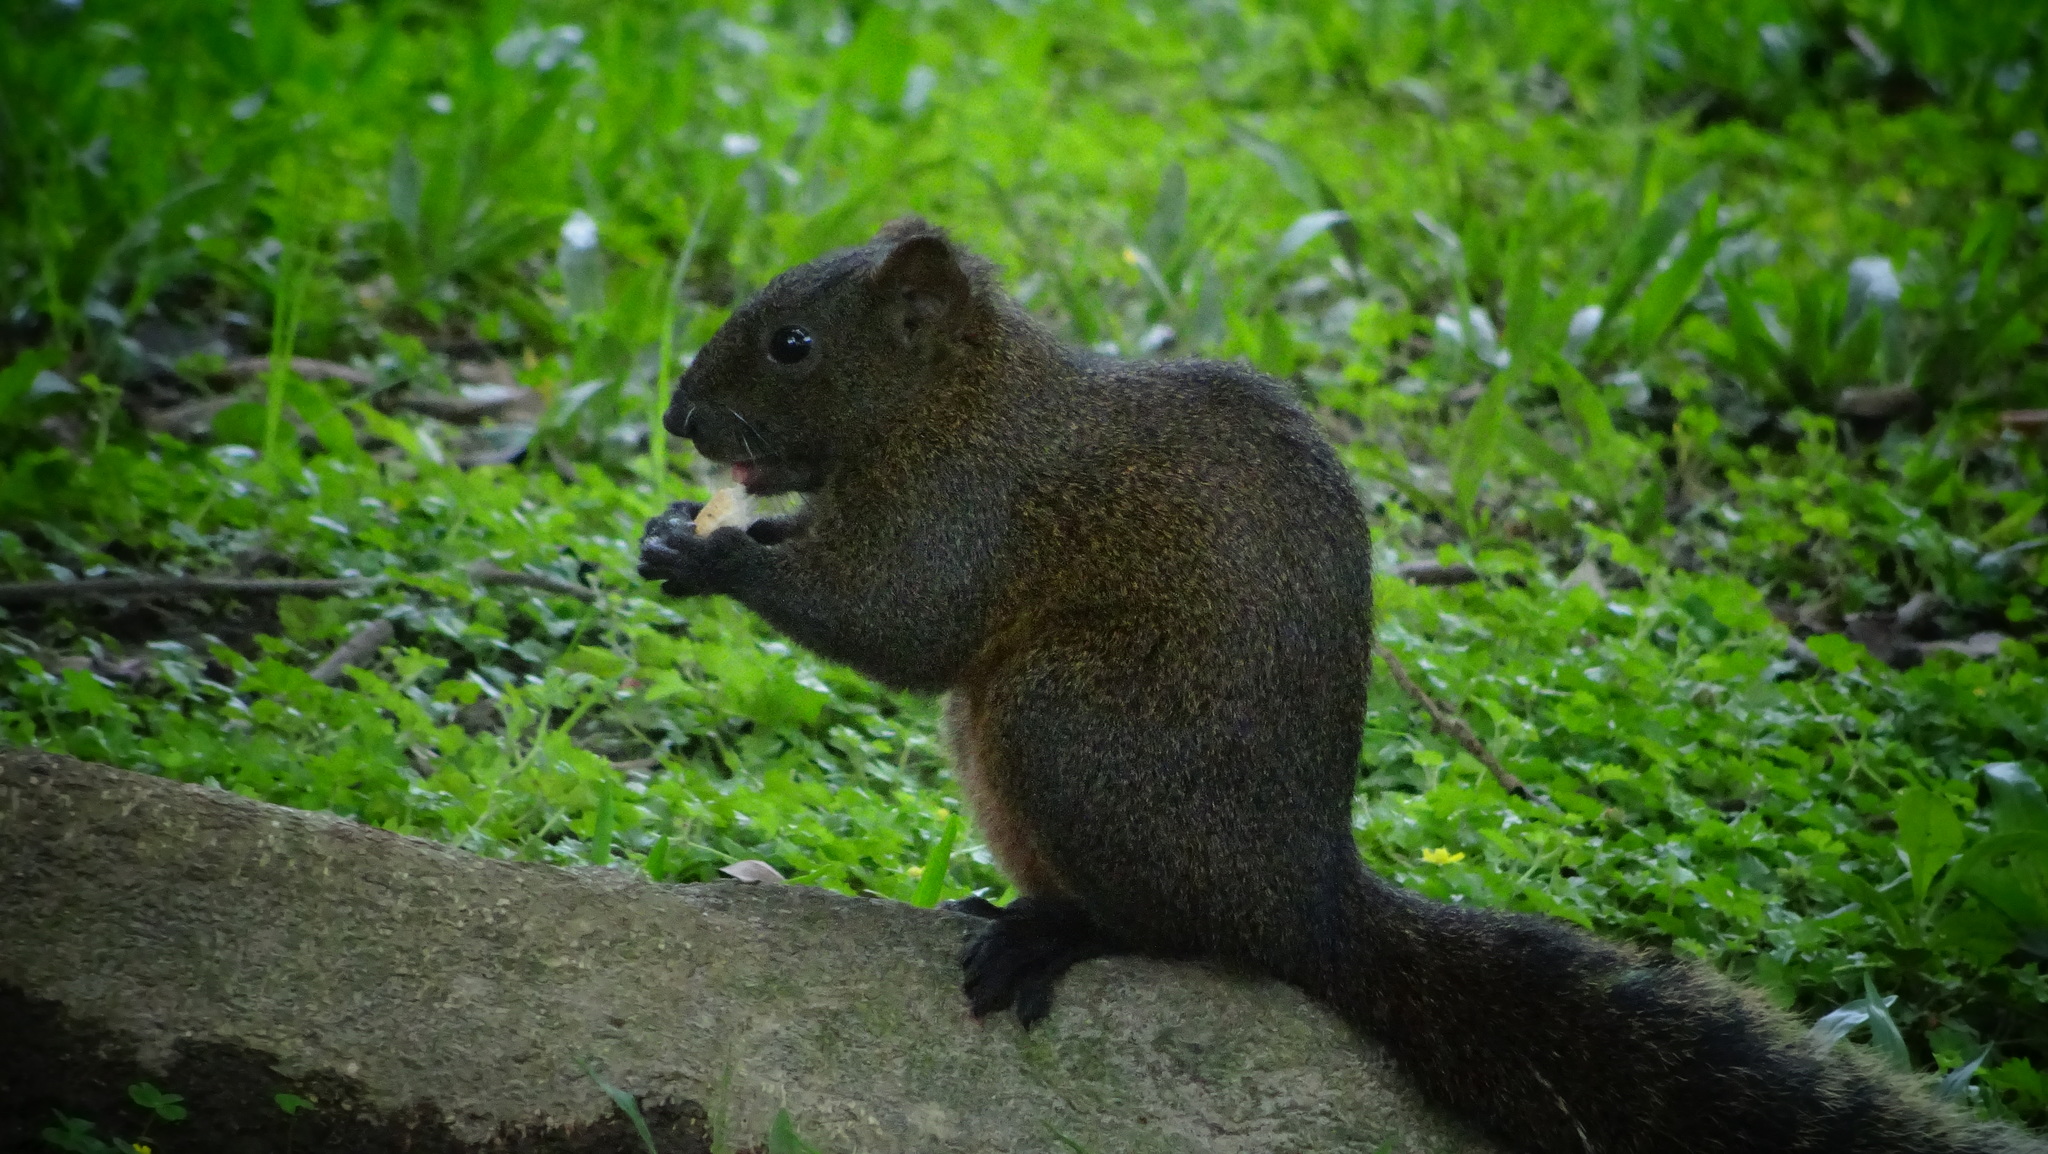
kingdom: Animalia
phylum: Chordata
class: Mammalia
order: Rodentia
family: Sciuridae
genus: Callosciurus
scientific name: Callosciurus erythraeus
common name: Pallas's squirrel
